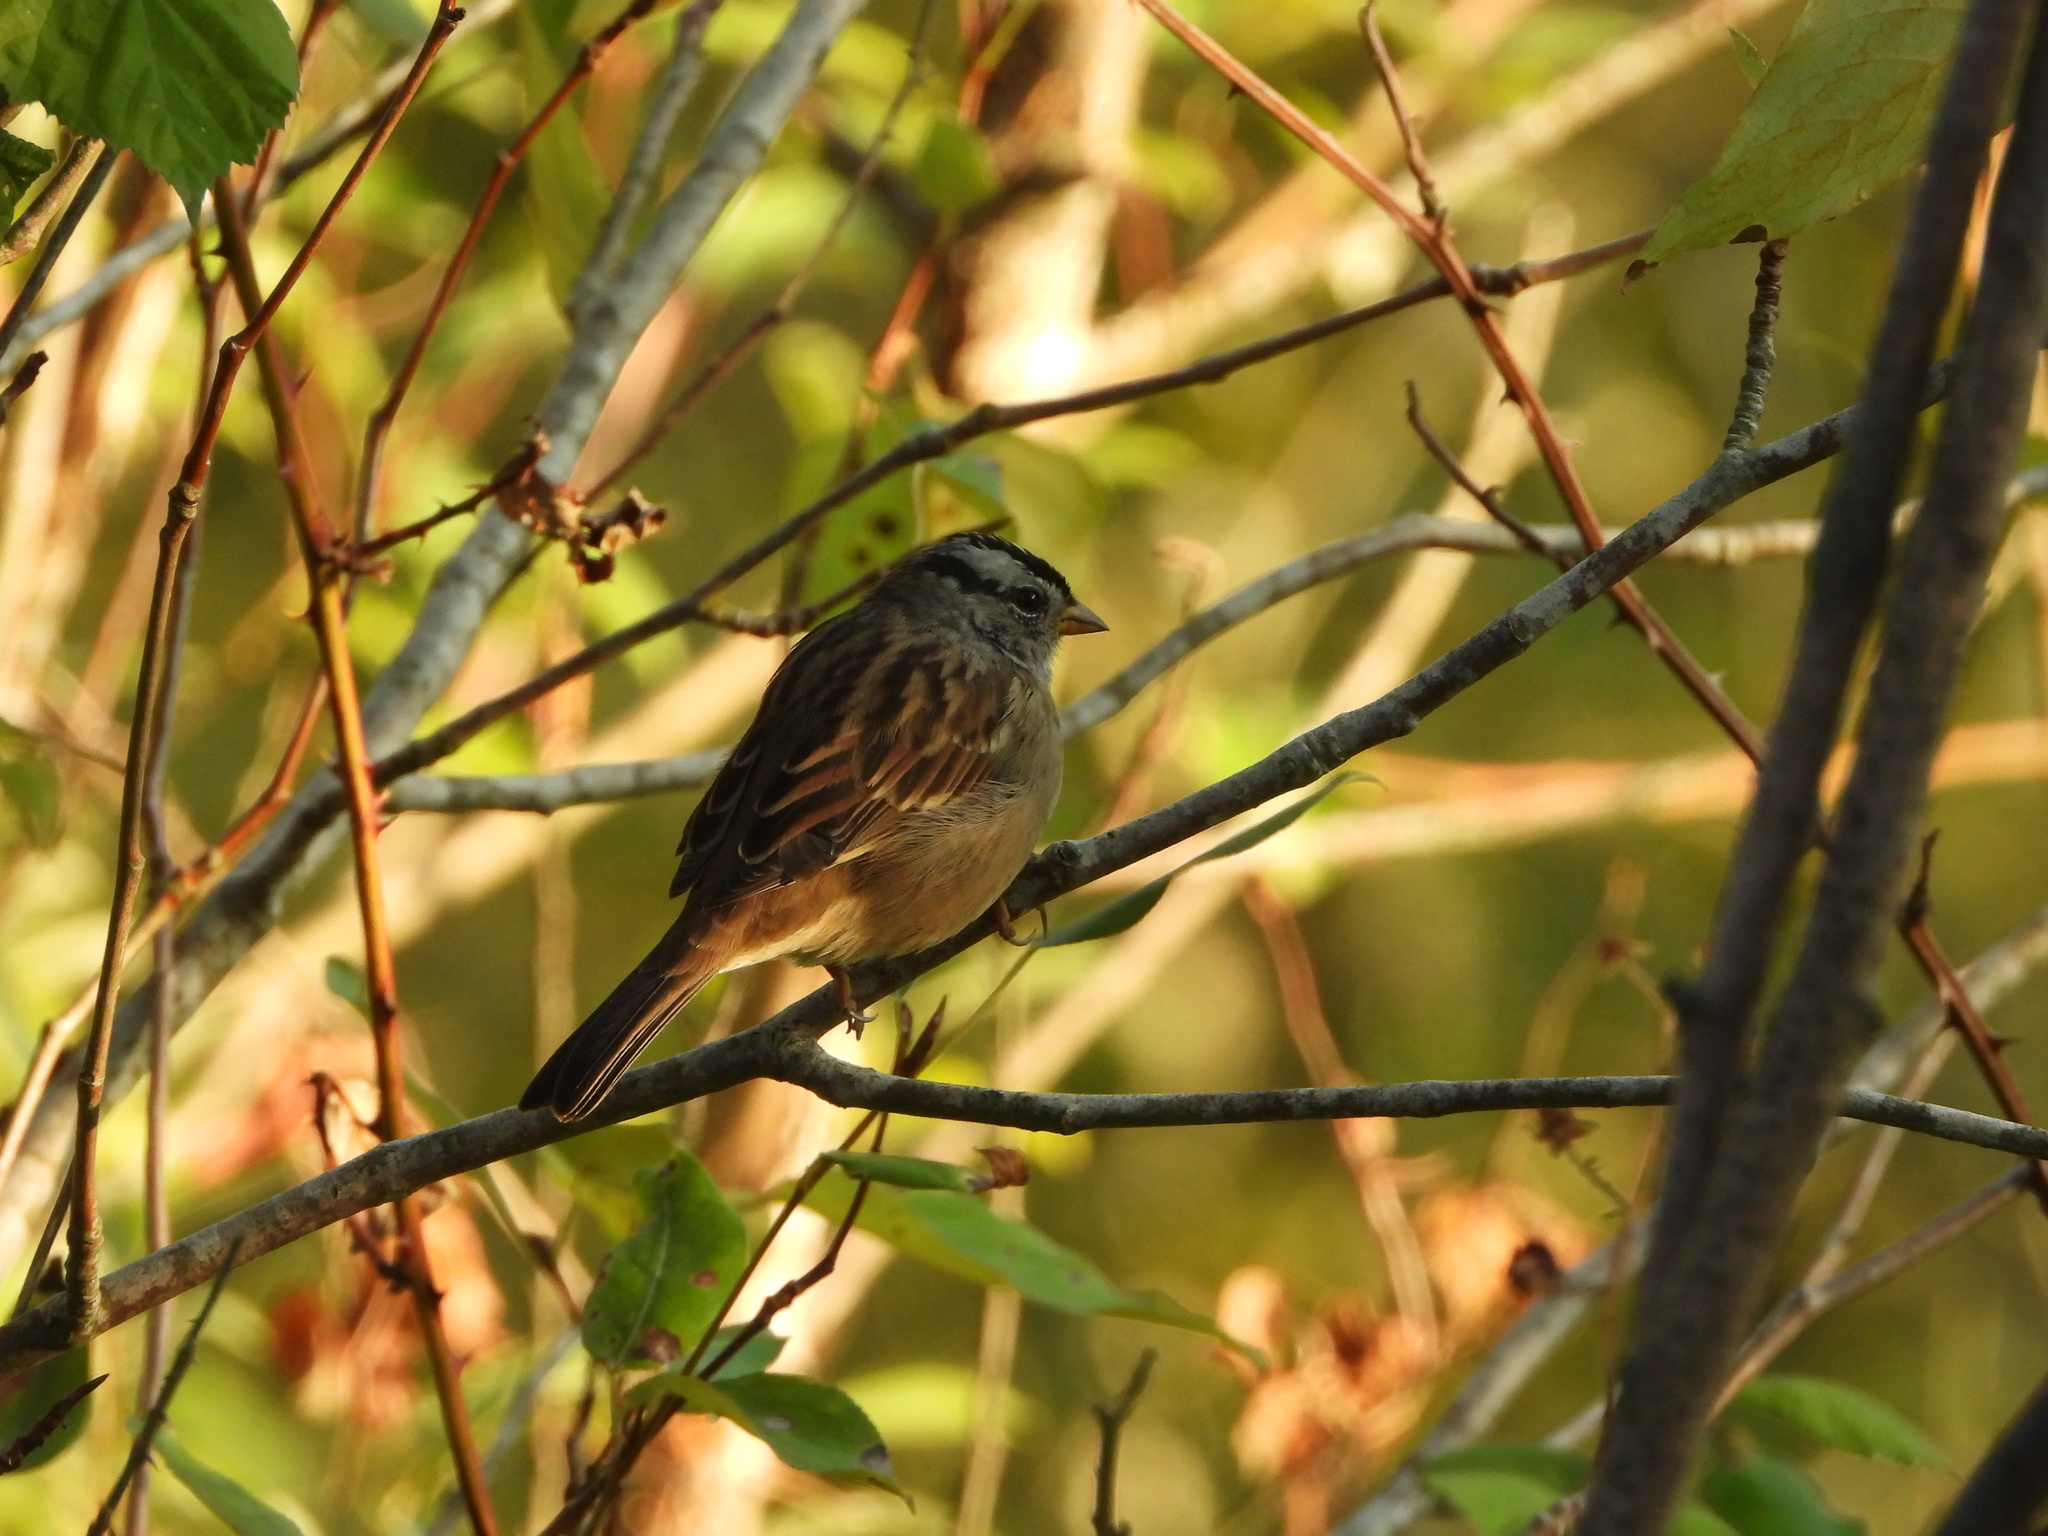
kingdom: Animalia
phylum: Chordata
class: Aves
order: Passeriformes
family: Passerellidae
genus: Zonotrichia
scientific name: Zonotrichia leucophrys
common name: White-crowned sparrow
